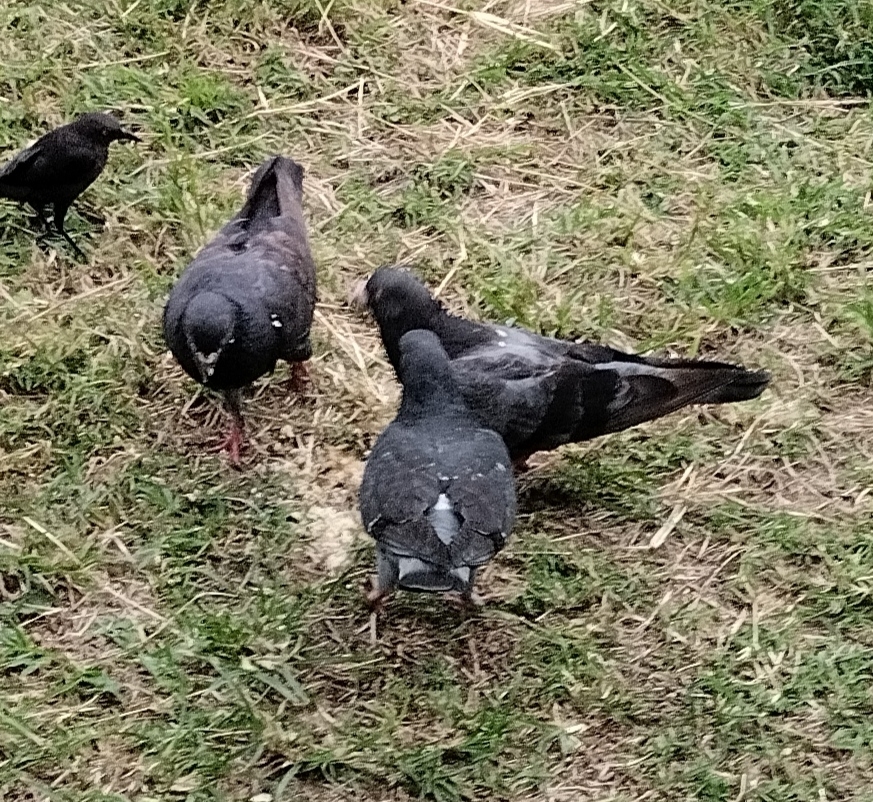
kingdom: Animalia
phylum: Chordata
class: Aves
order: Columbiformes
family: Columbidae
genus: Columba
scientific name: Columba livia
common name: Rock pigeon
